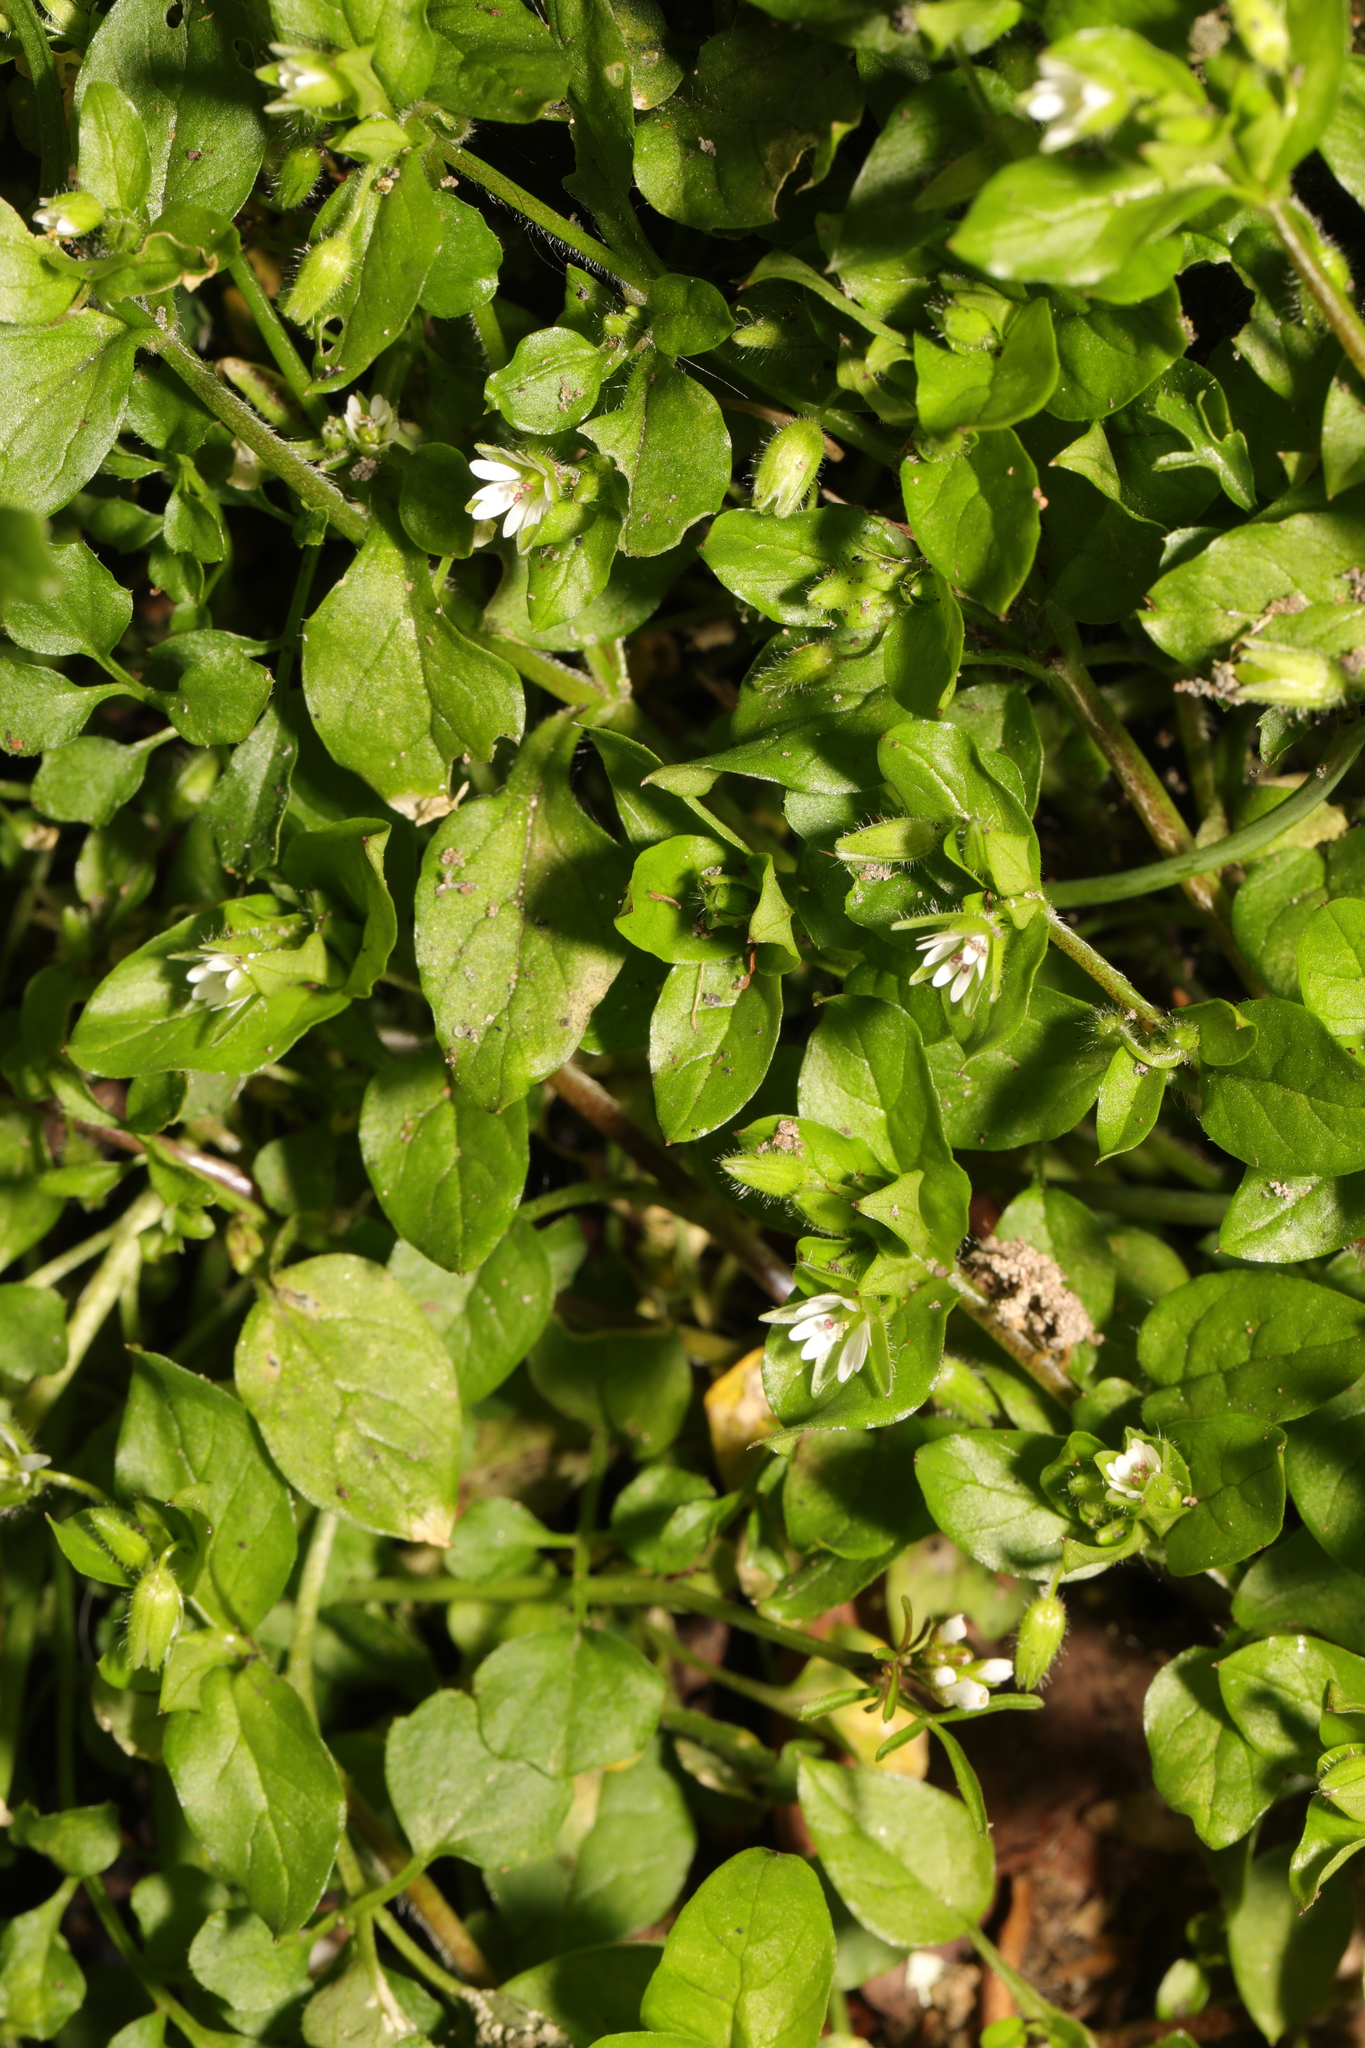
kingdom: Plantae
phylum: Tracheophyta
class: Magnoliopsida
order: Caryophyllales
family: Caryophyllaceae
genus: Stellaria
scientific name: Stellaria media
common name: Common chickweed
